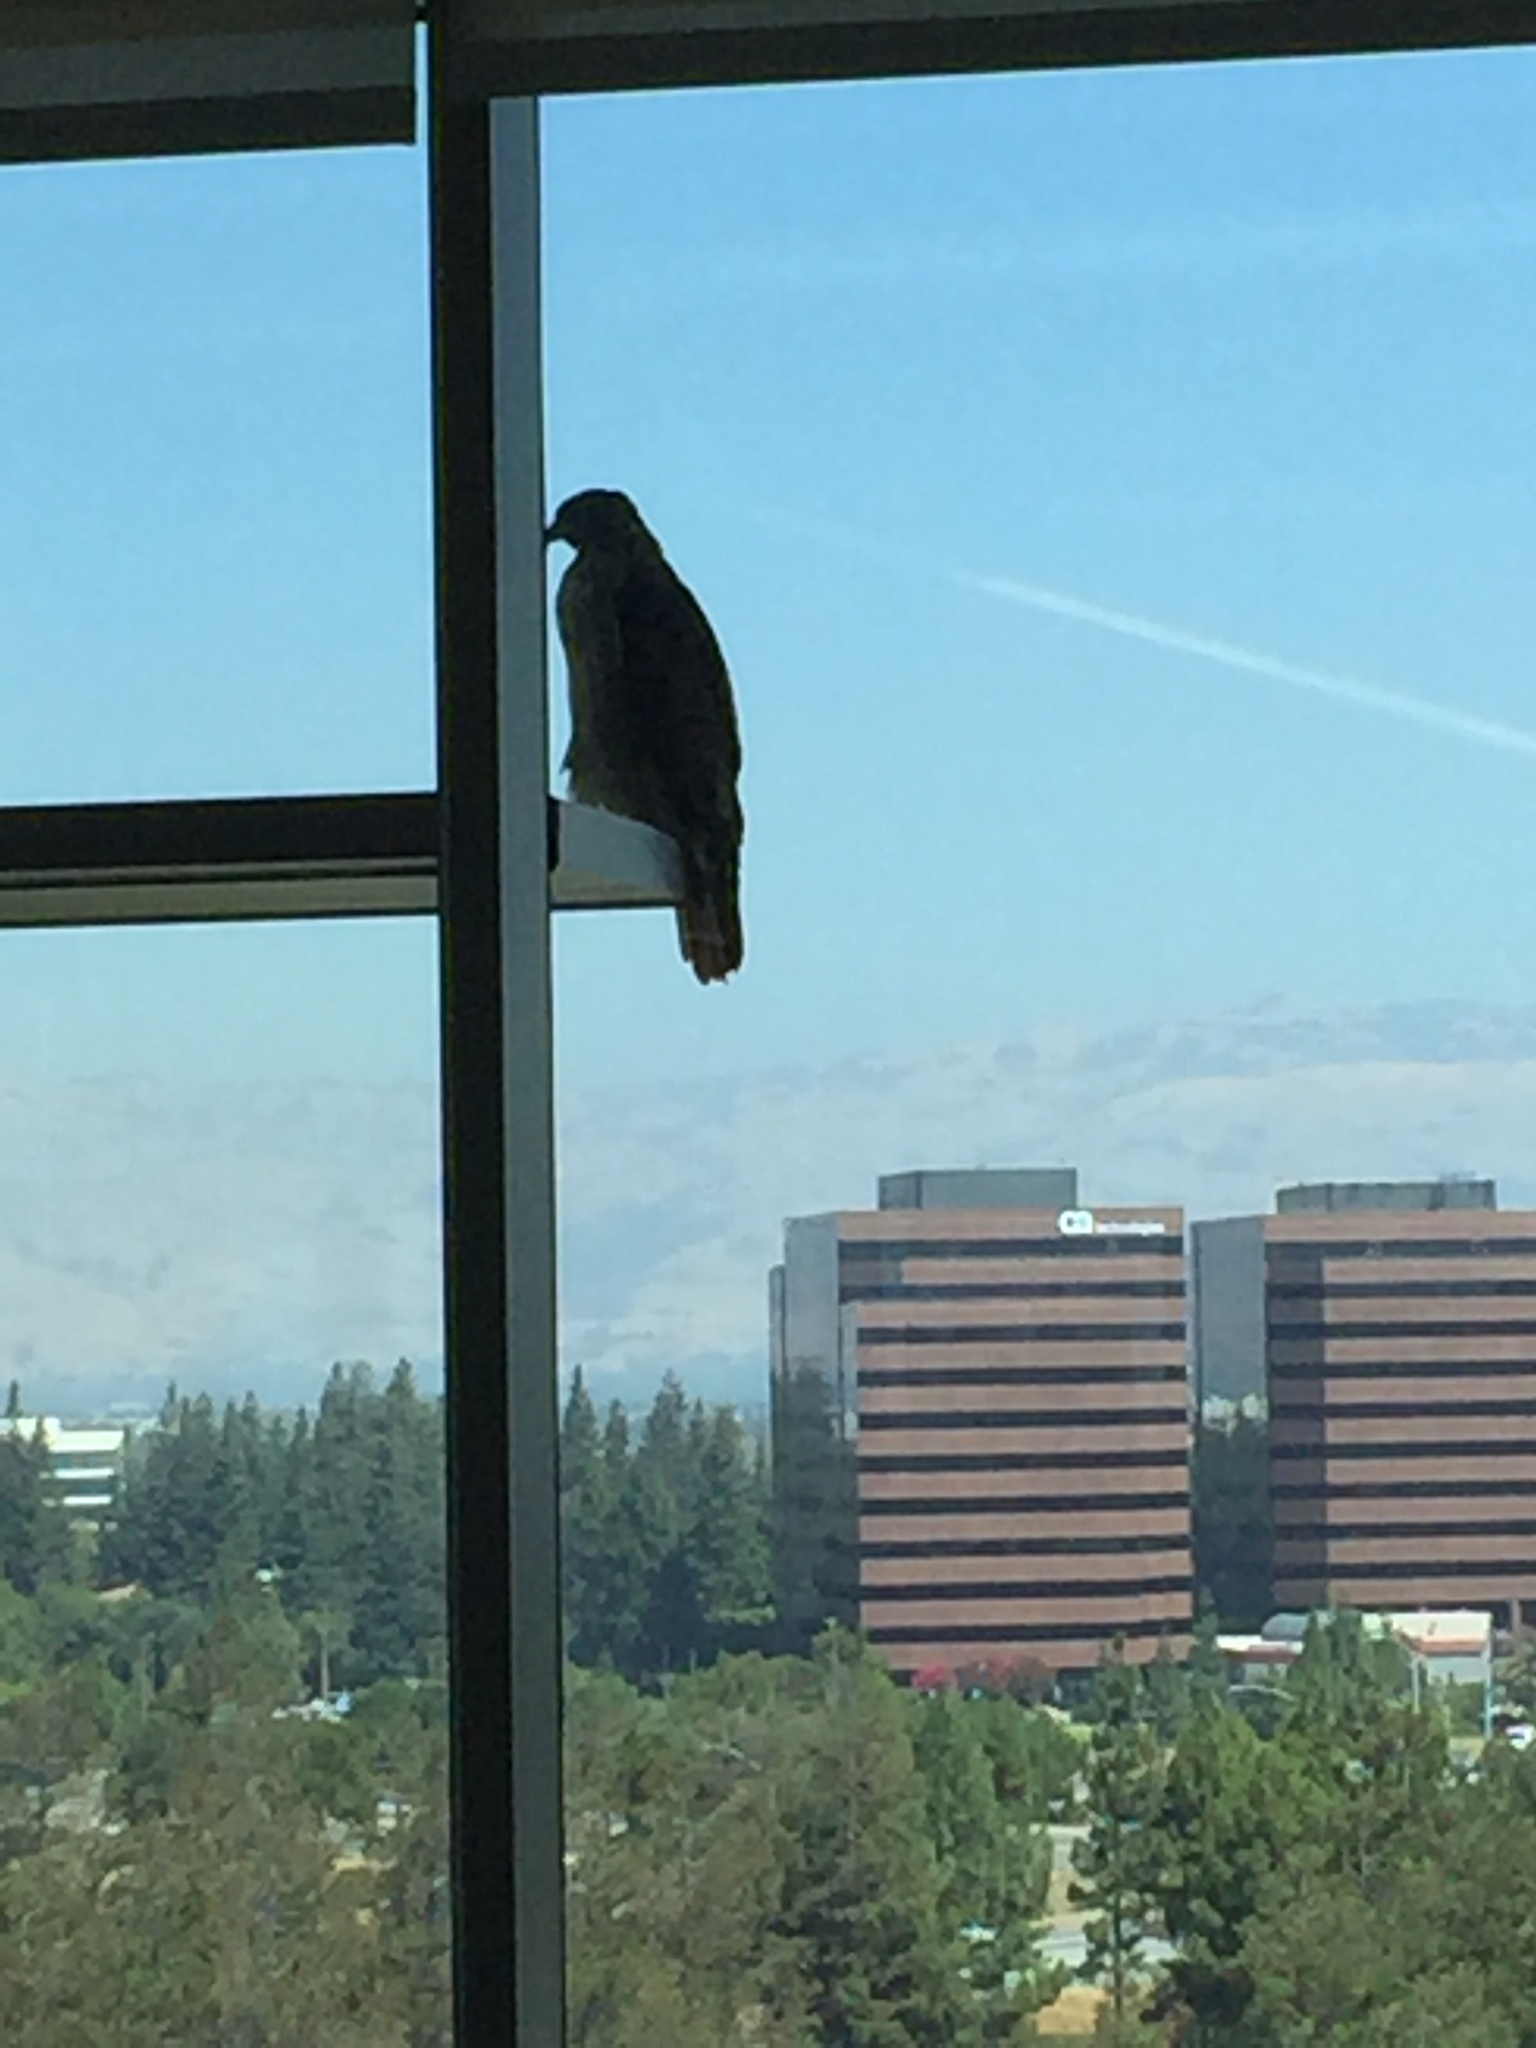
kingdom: Animalia
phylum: Chordata
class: Aves
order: Accipitriformes
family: Accipitridae
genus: Buteo
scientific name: Buteo jamaicensis
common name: Red-tailed hawk
